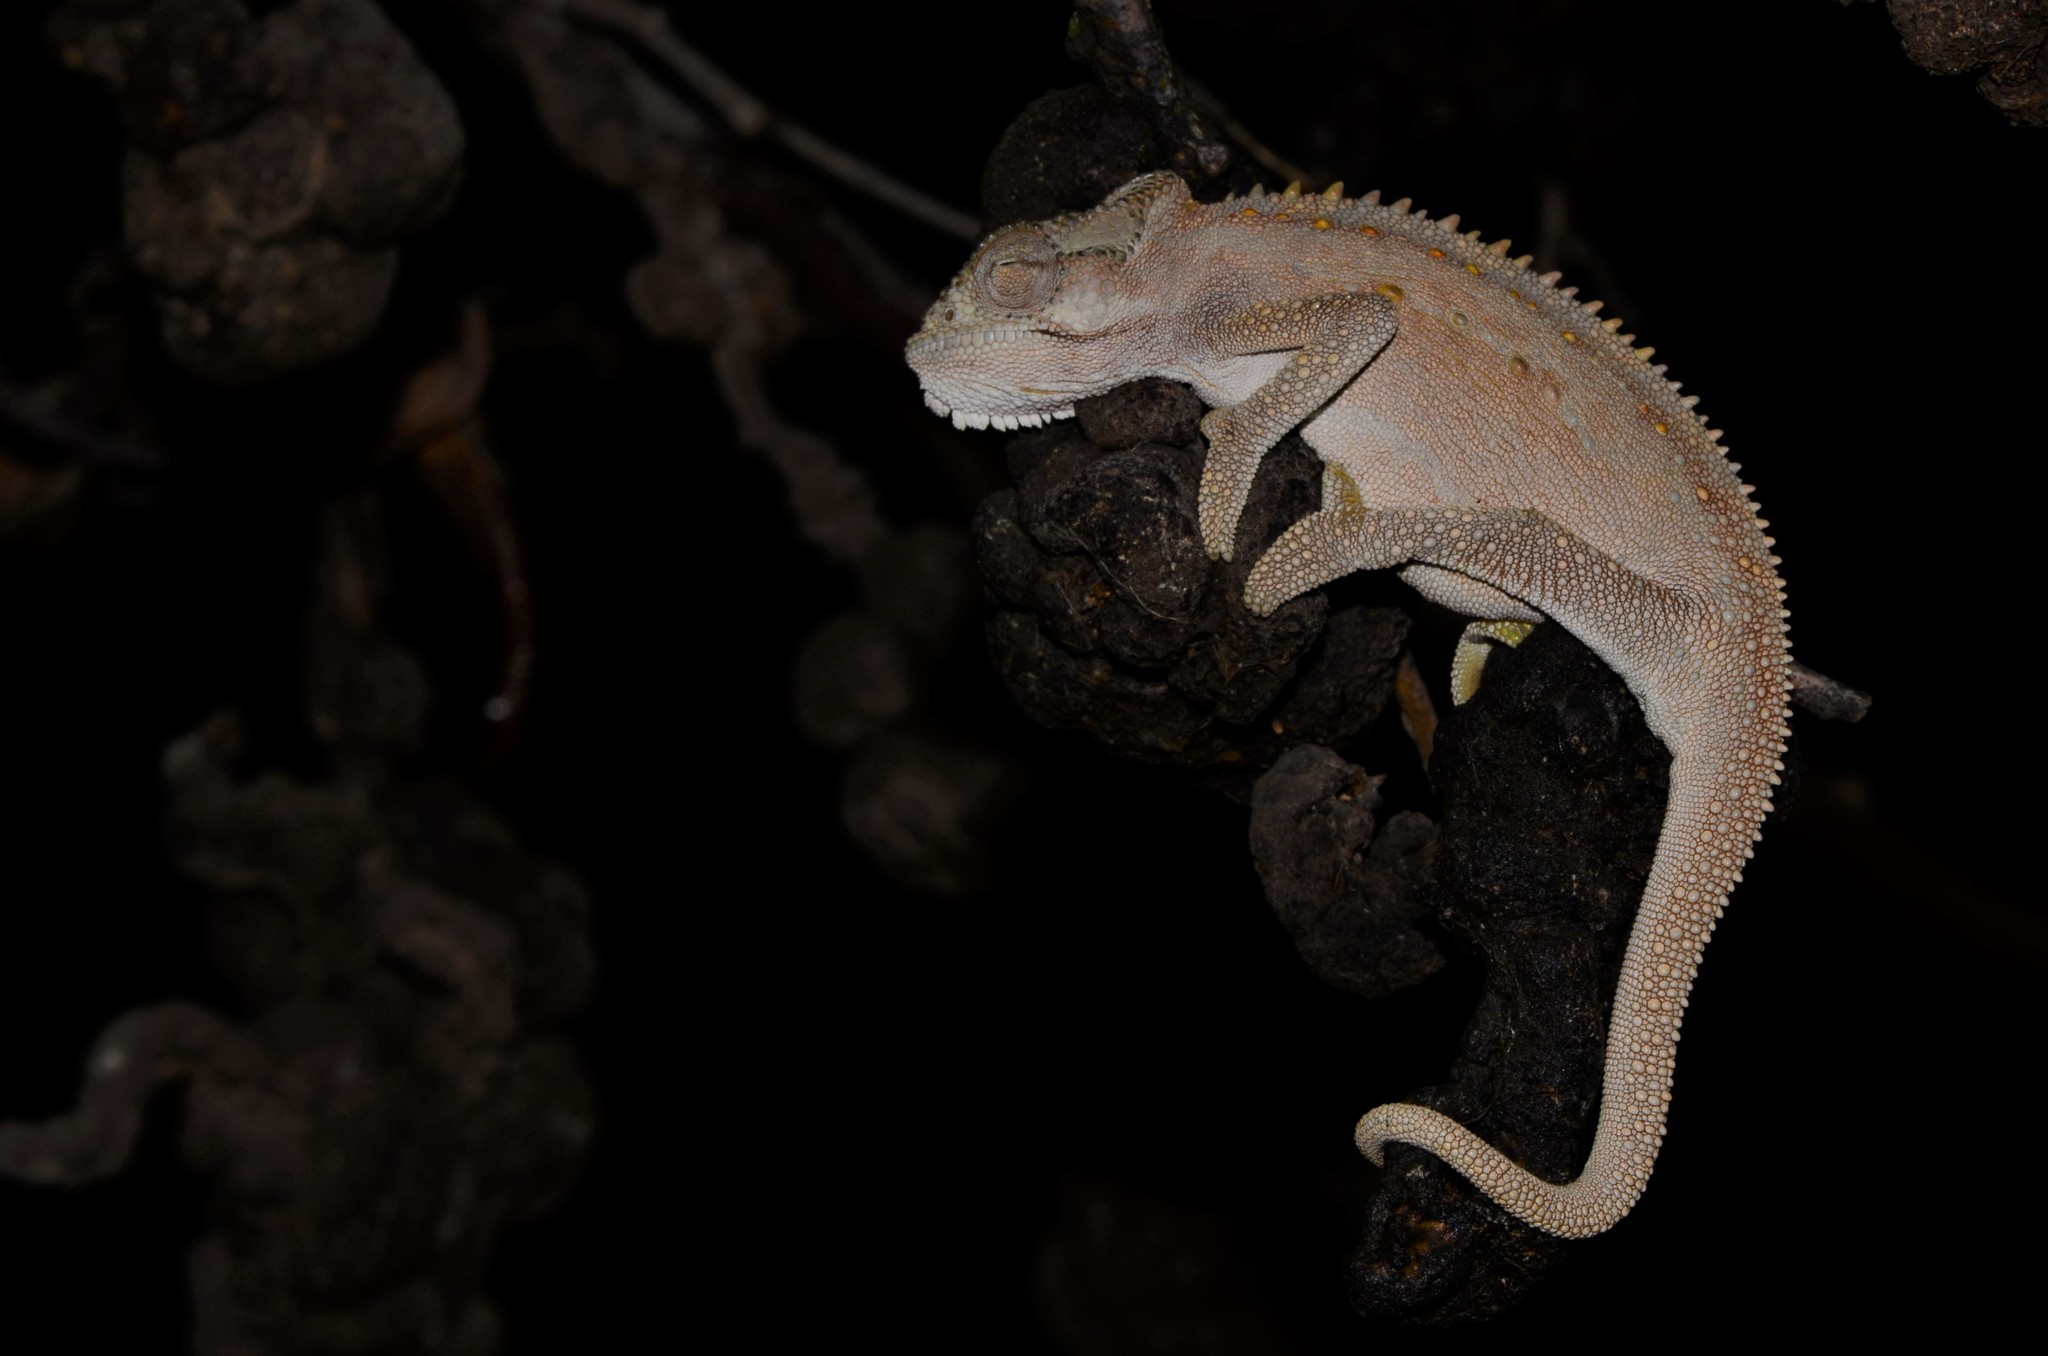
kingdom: Animalia
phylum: Chordata
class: Squamata
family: Chamaeleonidae
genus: Bradypodion
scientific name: Bradypodion pumilum
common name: Cape dwarf chameleon
